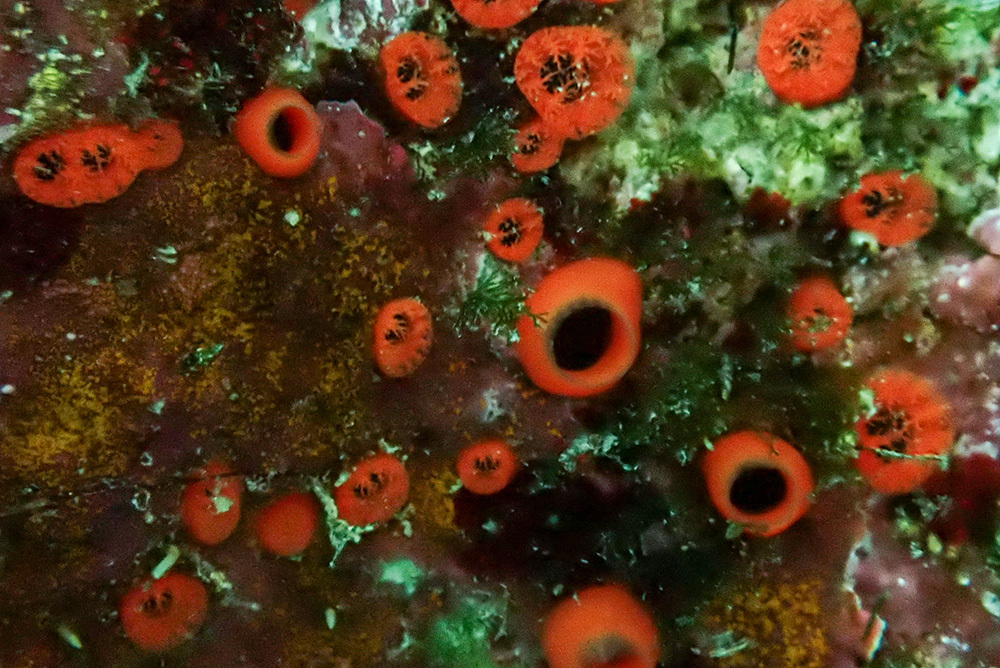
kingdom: Animalia
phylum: Porifera
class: Demospongiae
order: Clionaida
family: Clionaidae
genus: Cliona
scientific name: Cliona rhodensis
